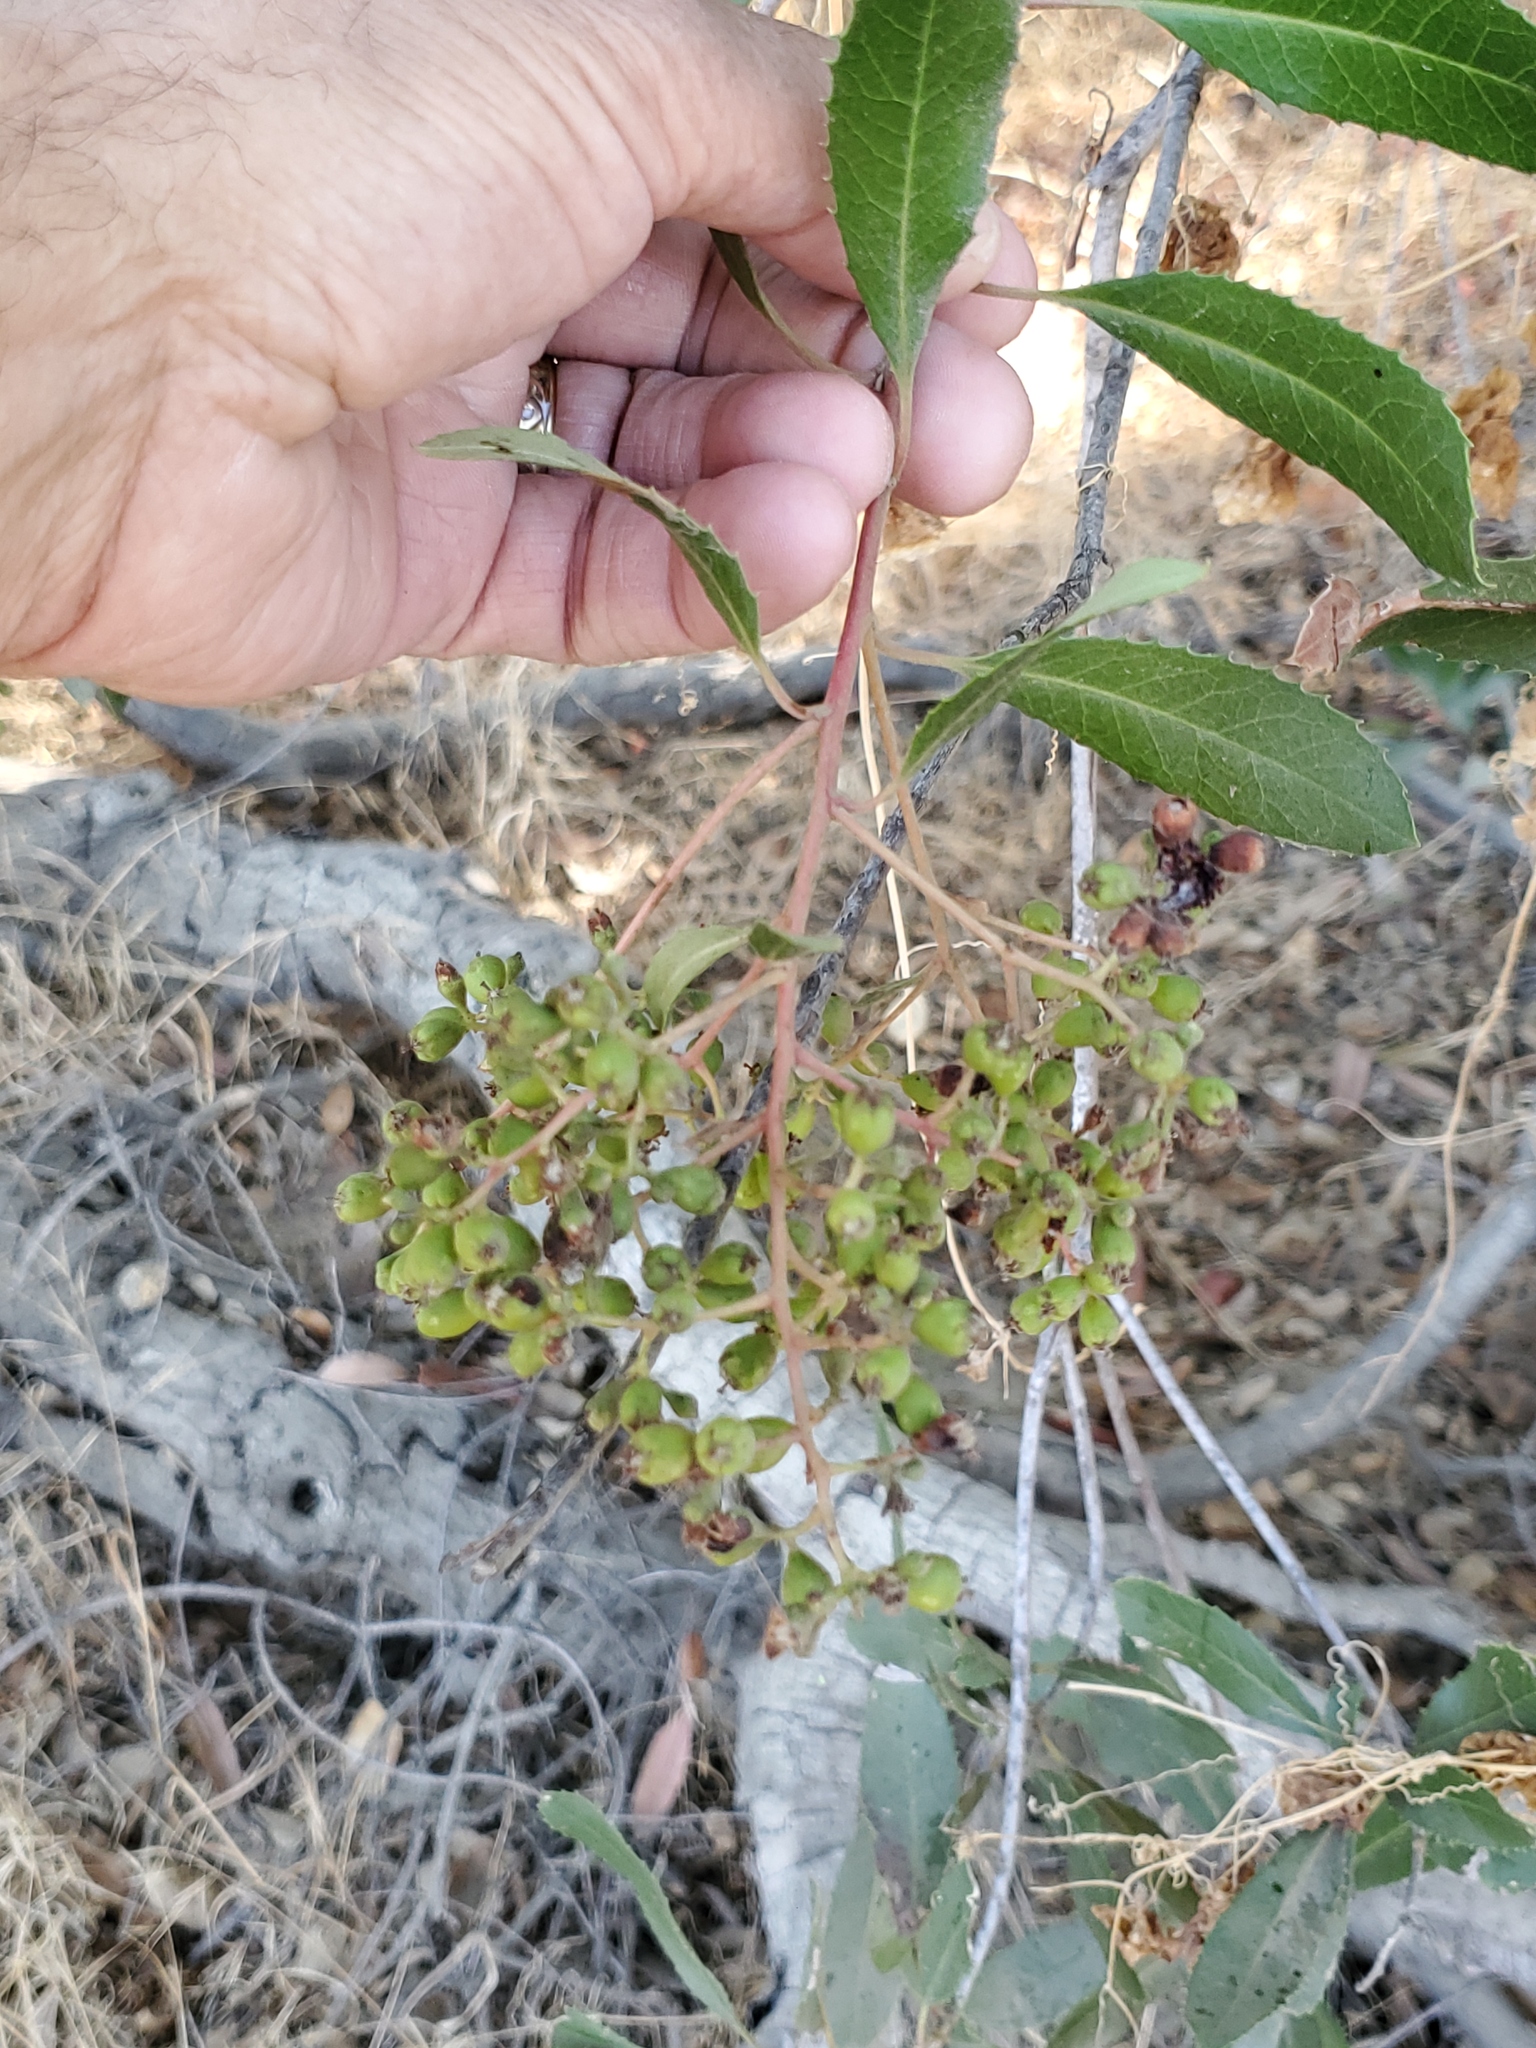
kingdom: Plantae
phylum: Tracheophyta
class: Magnoliopsida
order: Rosales
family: Rosaceae
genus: Heteromeles
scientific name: Heteromeles arbutifolia
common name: California-holly
